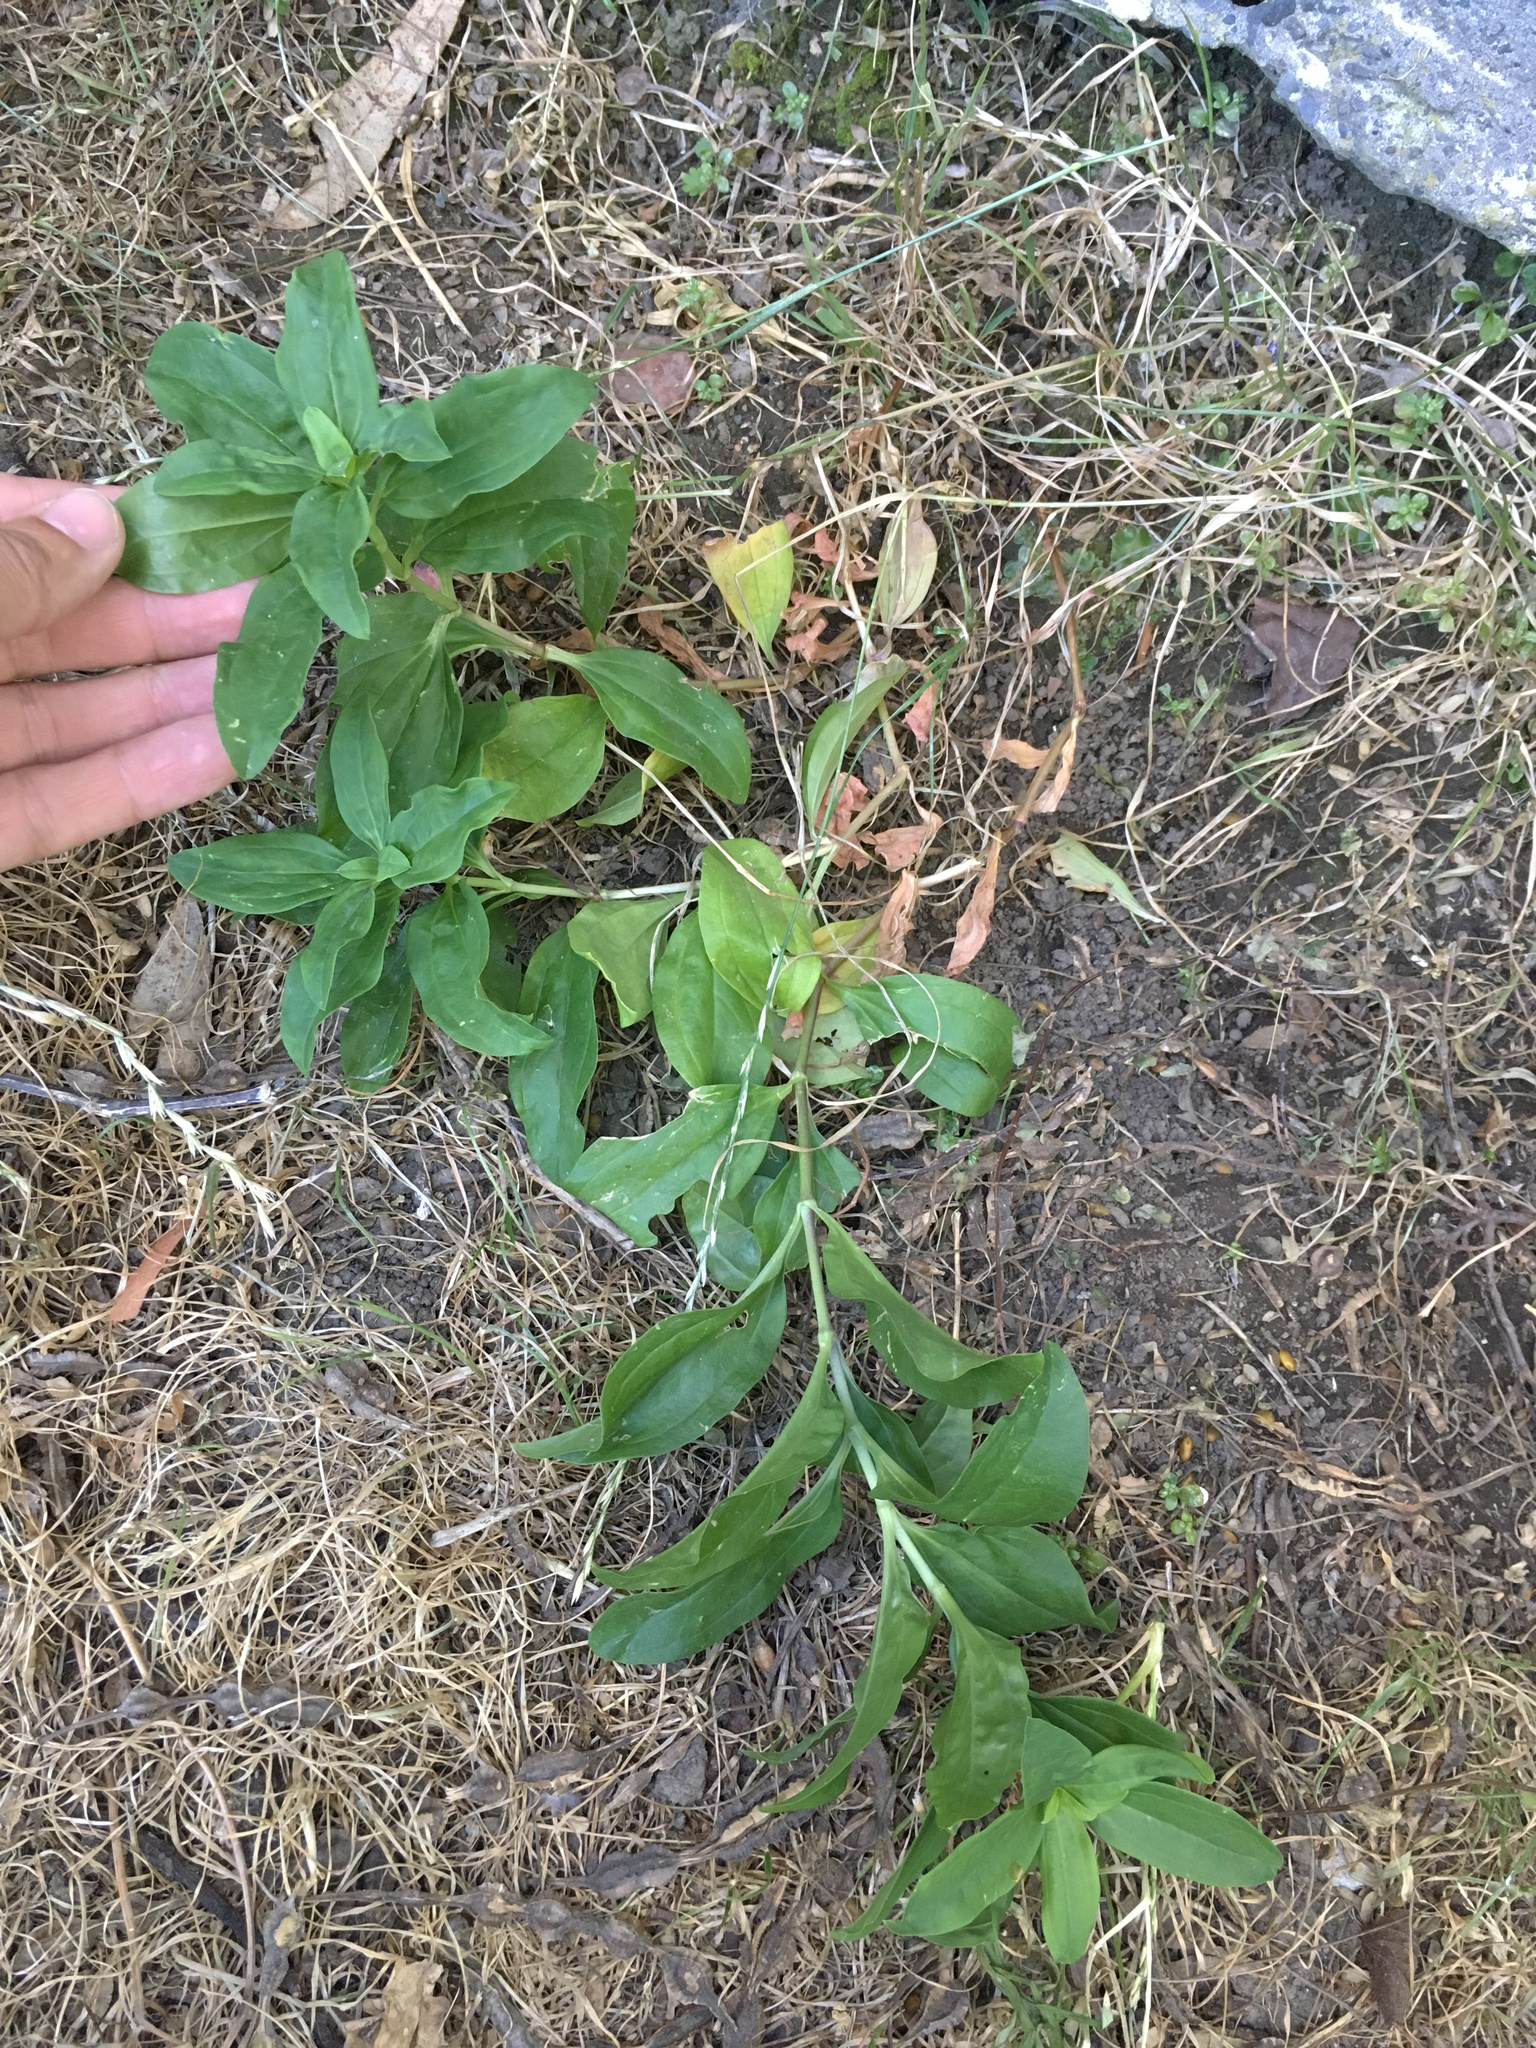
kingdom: Plantae
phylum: Tracheophyta
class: Liliopsida
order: Liliales
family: Alstroemeriaceae
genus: Alstroemeria
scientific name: Alstroemeria aurea
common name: Peruvian lily
